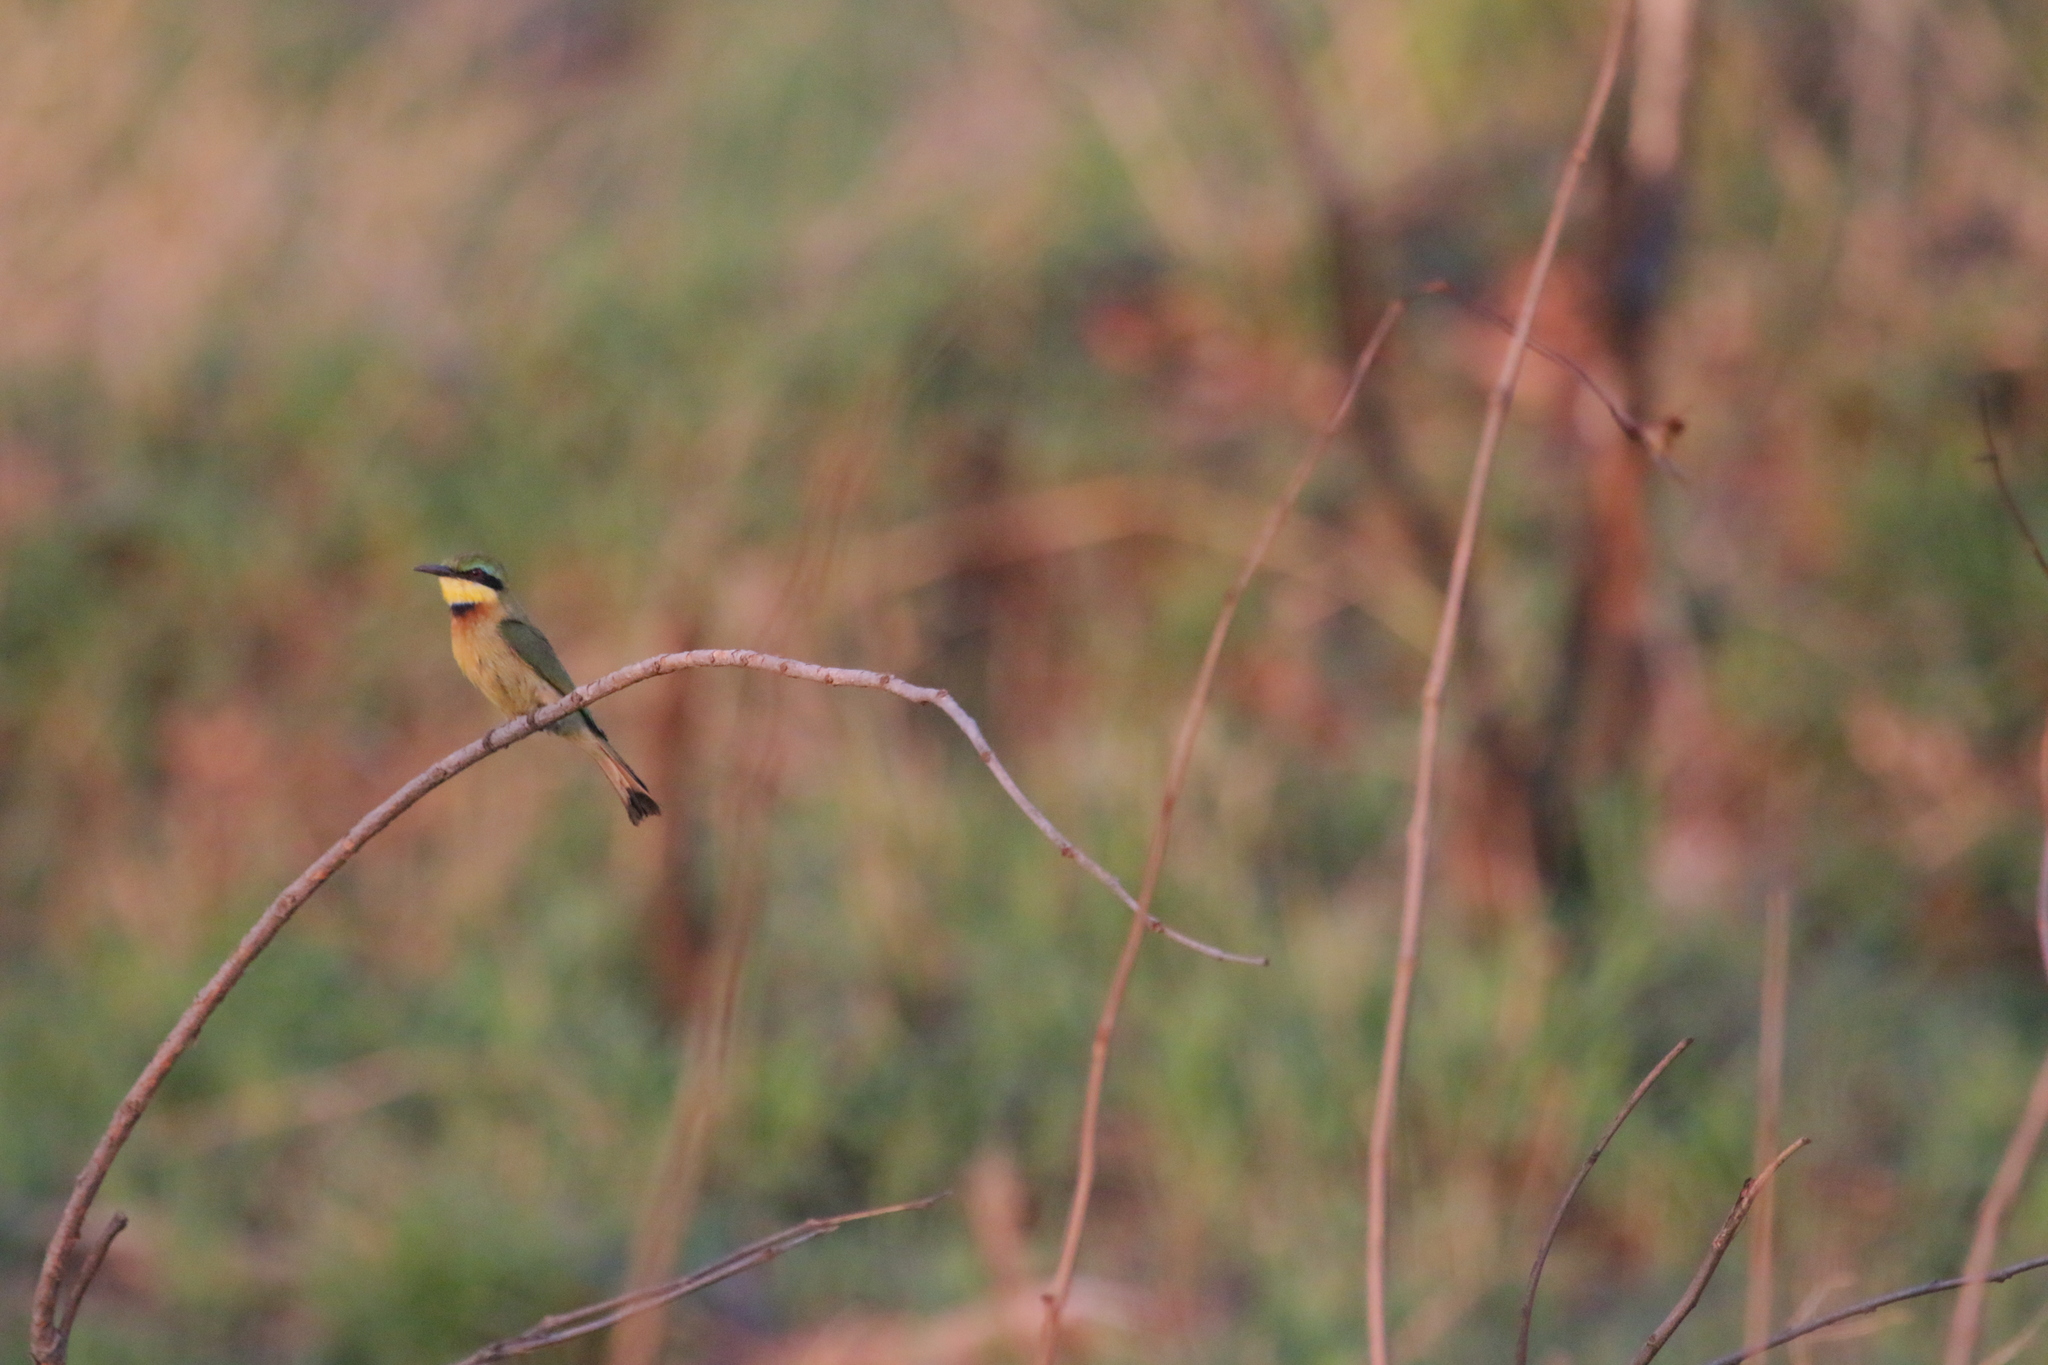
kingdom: Animalia
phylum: Chordata
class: Aves
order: Coraciiformes
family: Meropidae
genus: Merops
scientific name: Merops pusillus
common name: Little bee-eater
